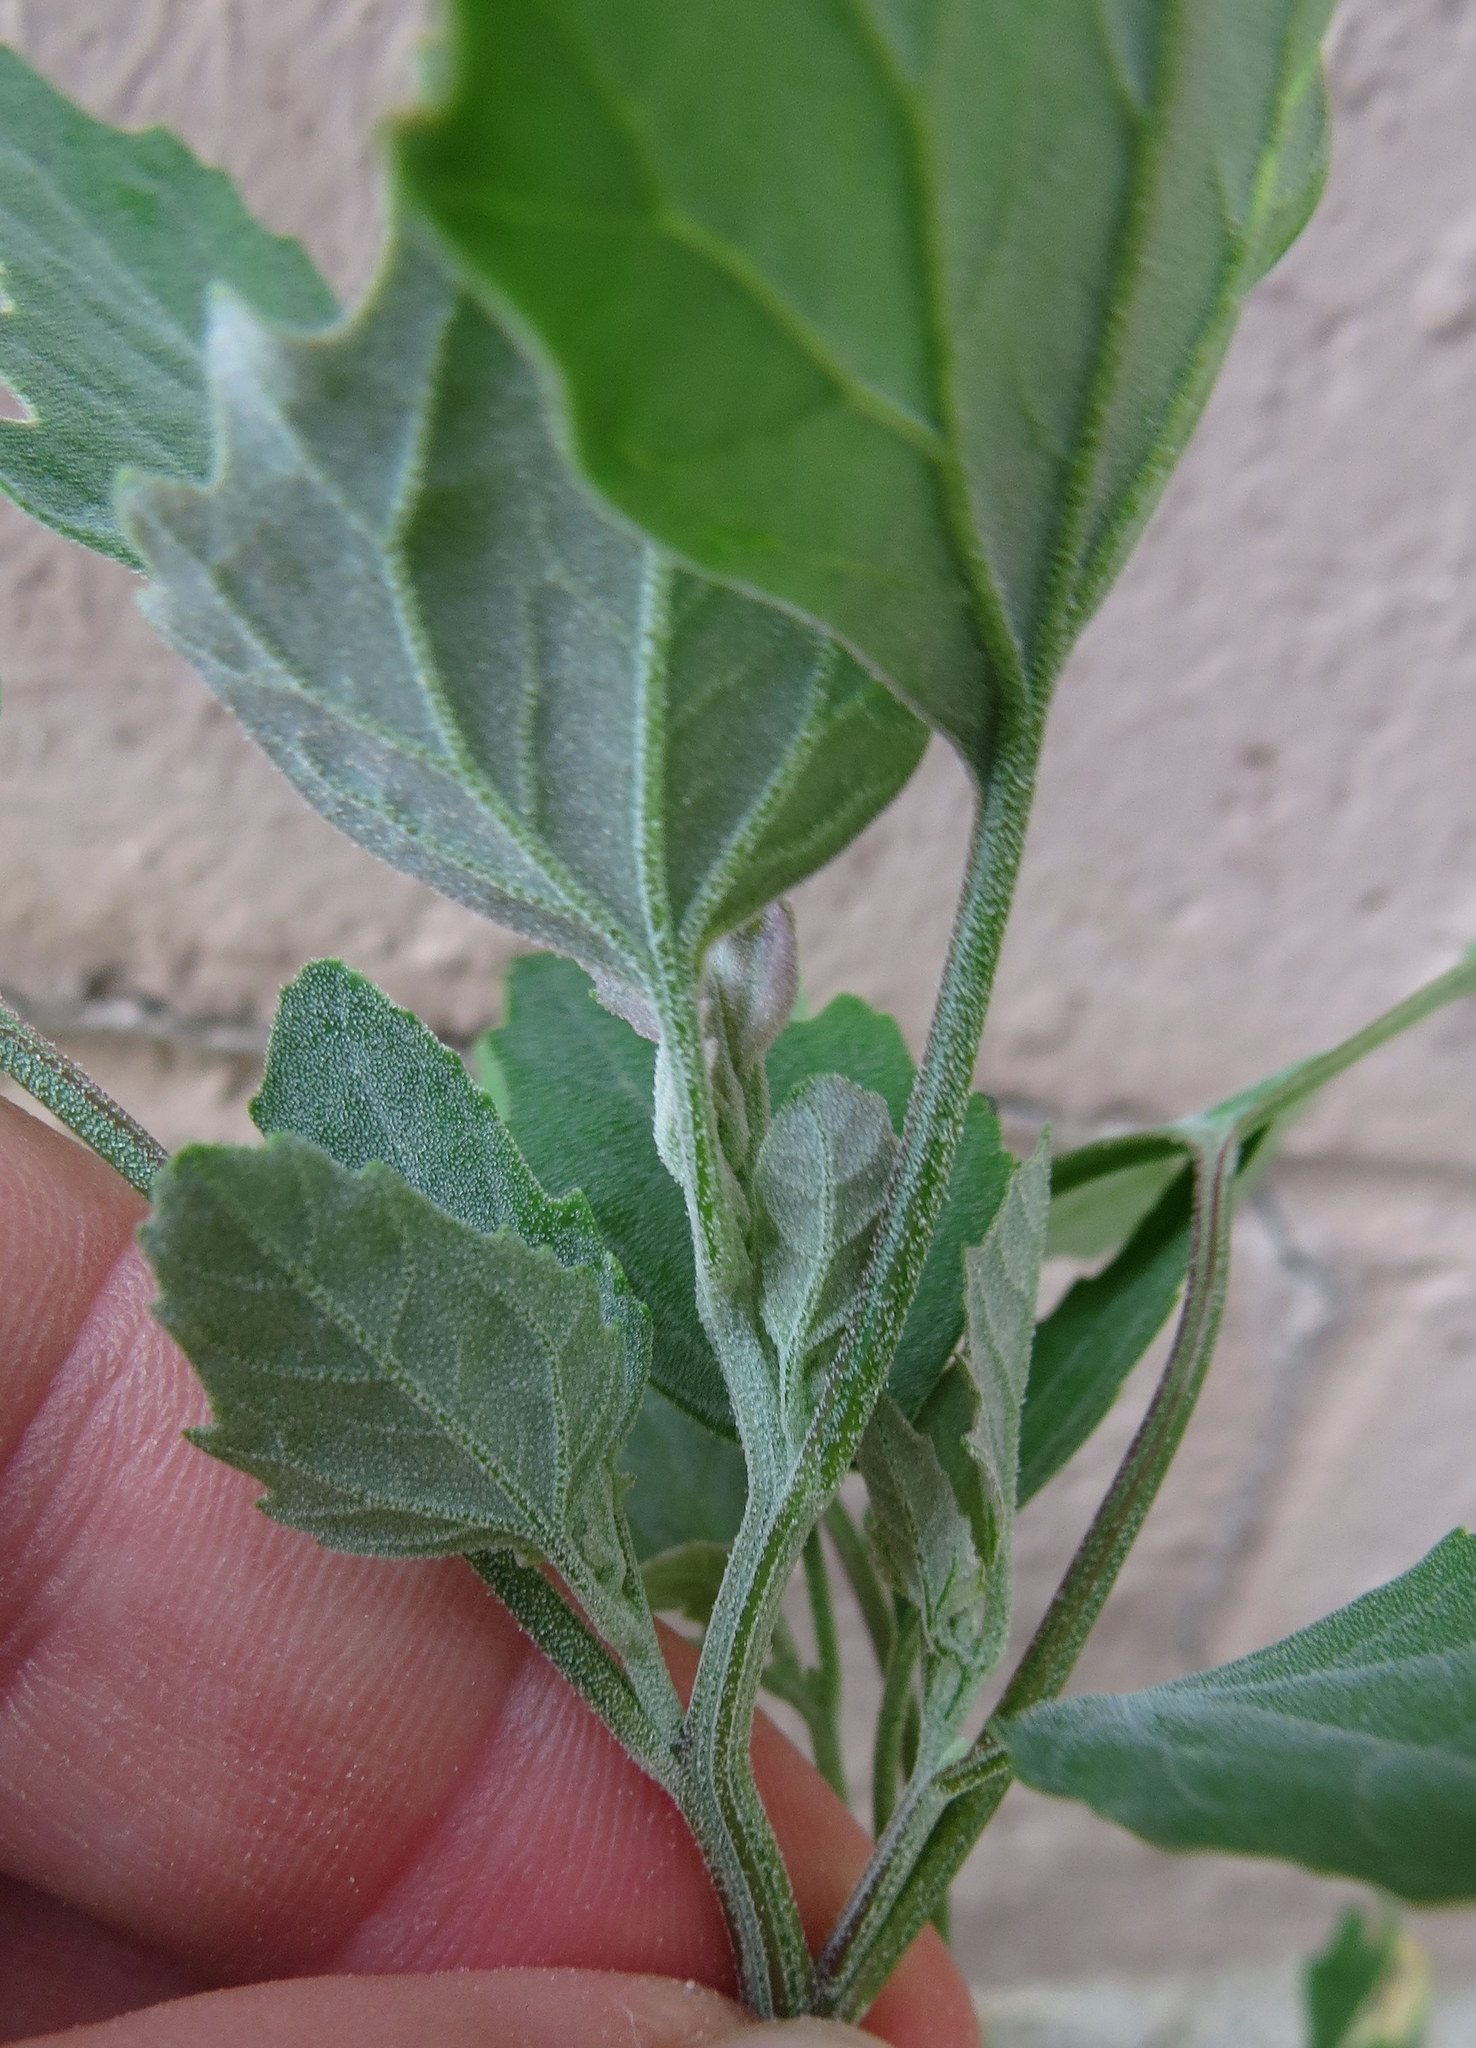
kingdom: Plantae
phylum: Tracheophyta
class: Magnoliopsida
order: Caryophyllales
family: Amaranthaceae
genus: Chenopodium
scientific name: Chenopodium album
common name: Fat-hen
